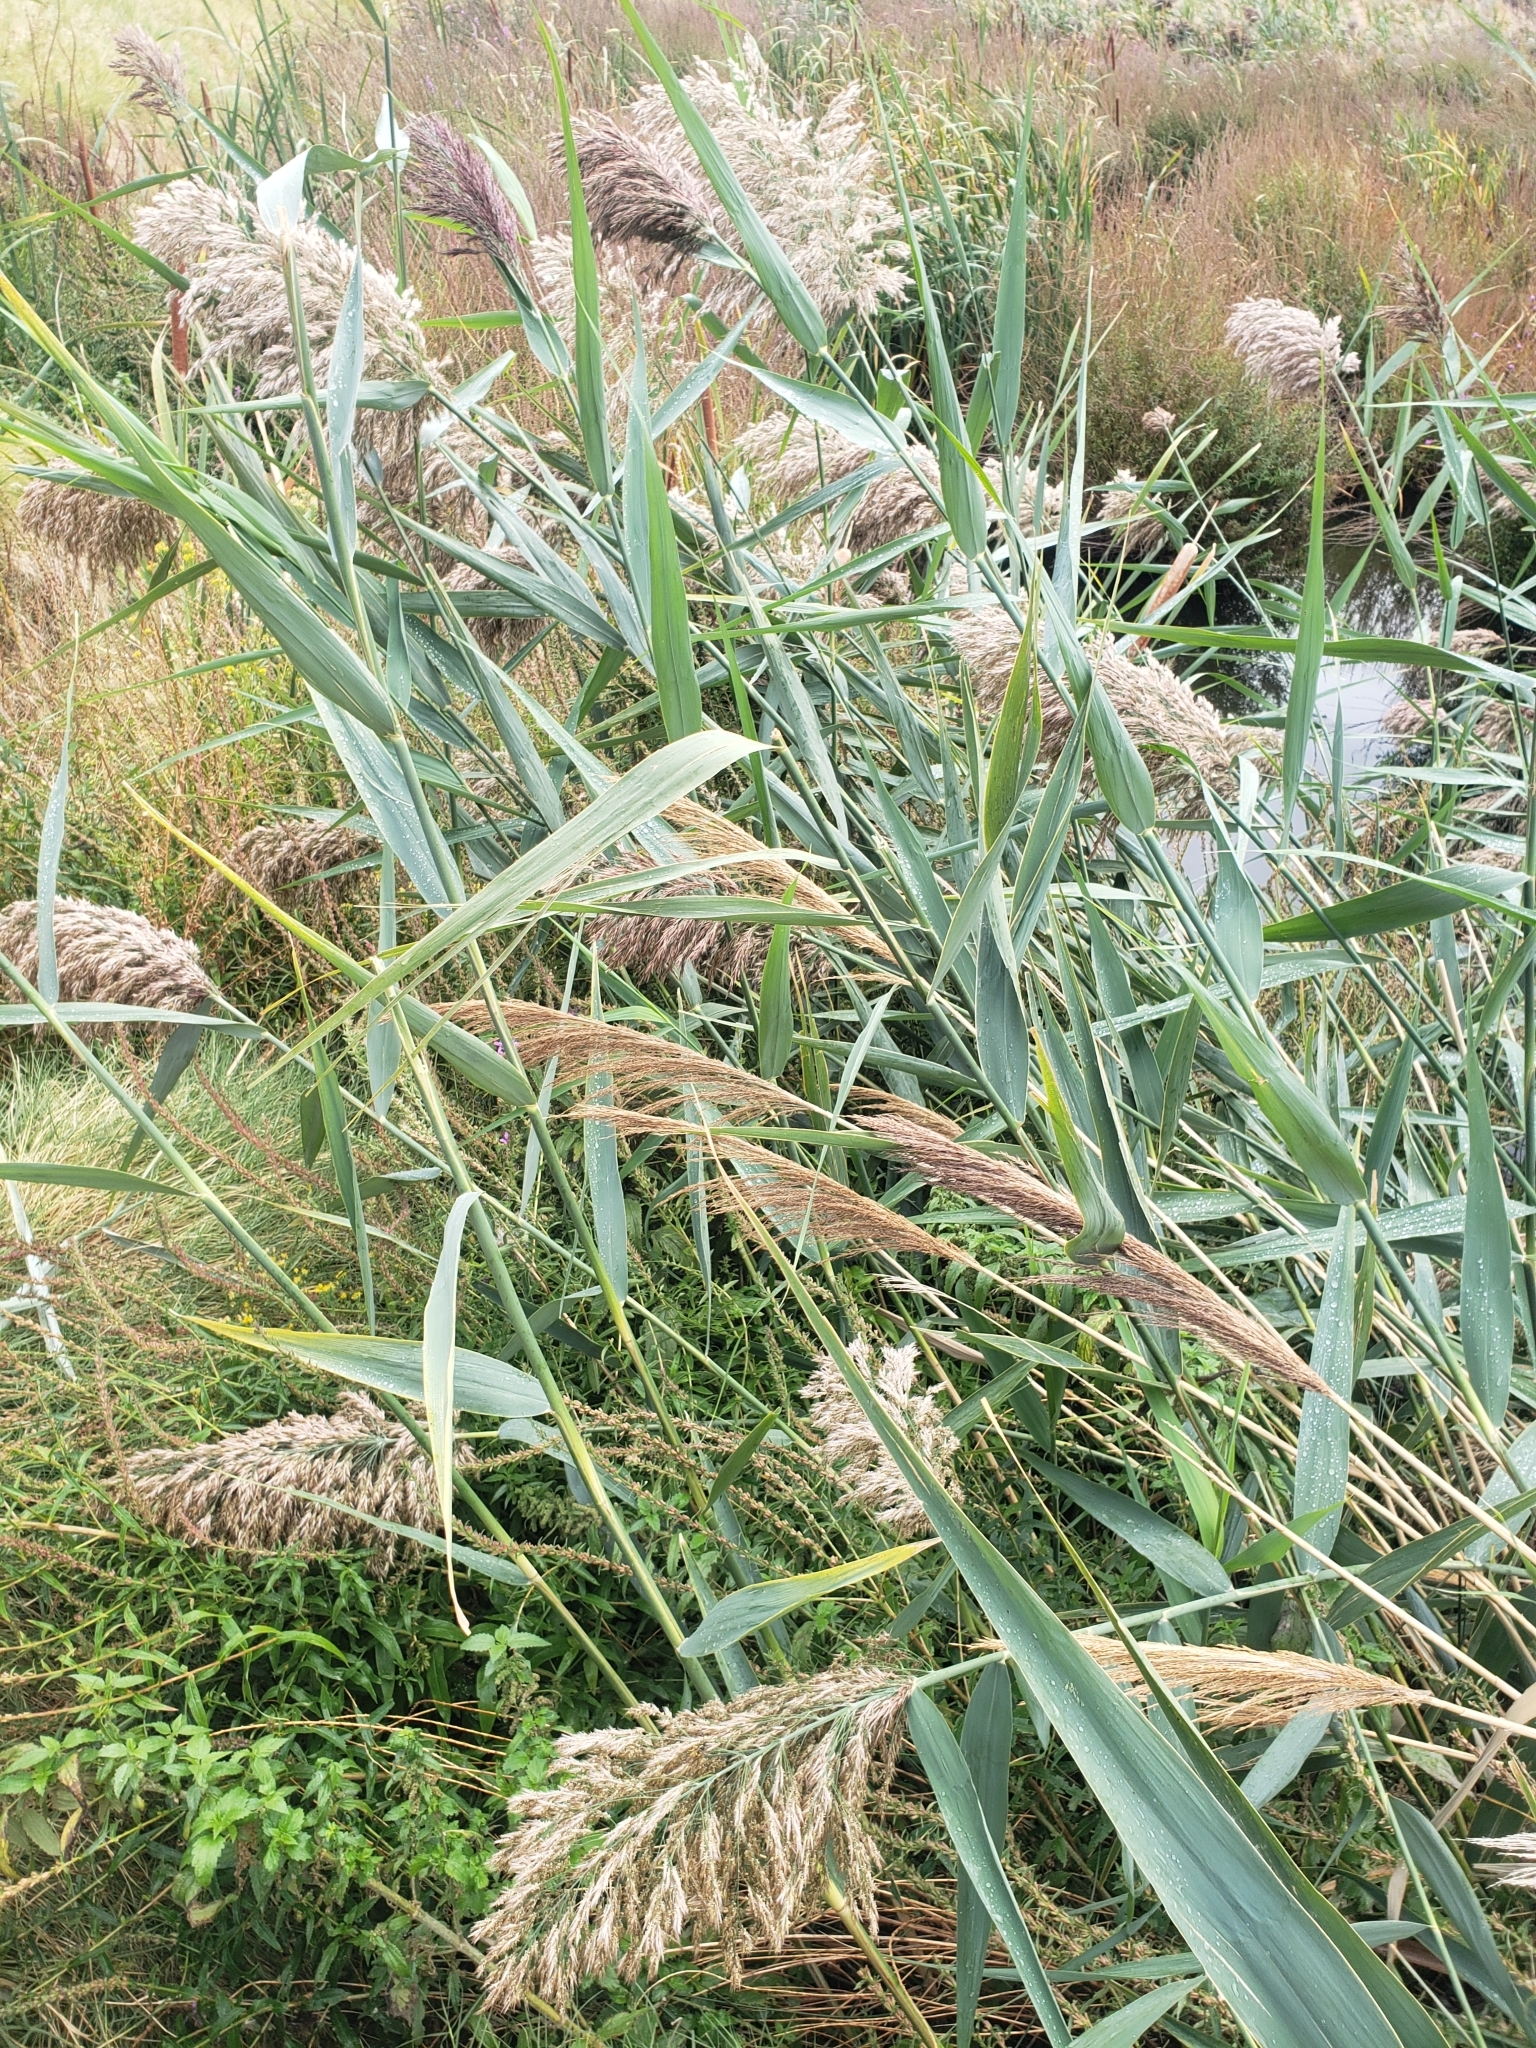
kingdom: Plantae
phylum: Tracheophyta
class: Liliopsida
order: Poales
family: Poaceae
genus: Phragmites
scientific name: Phragmites australis
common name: Common reed
